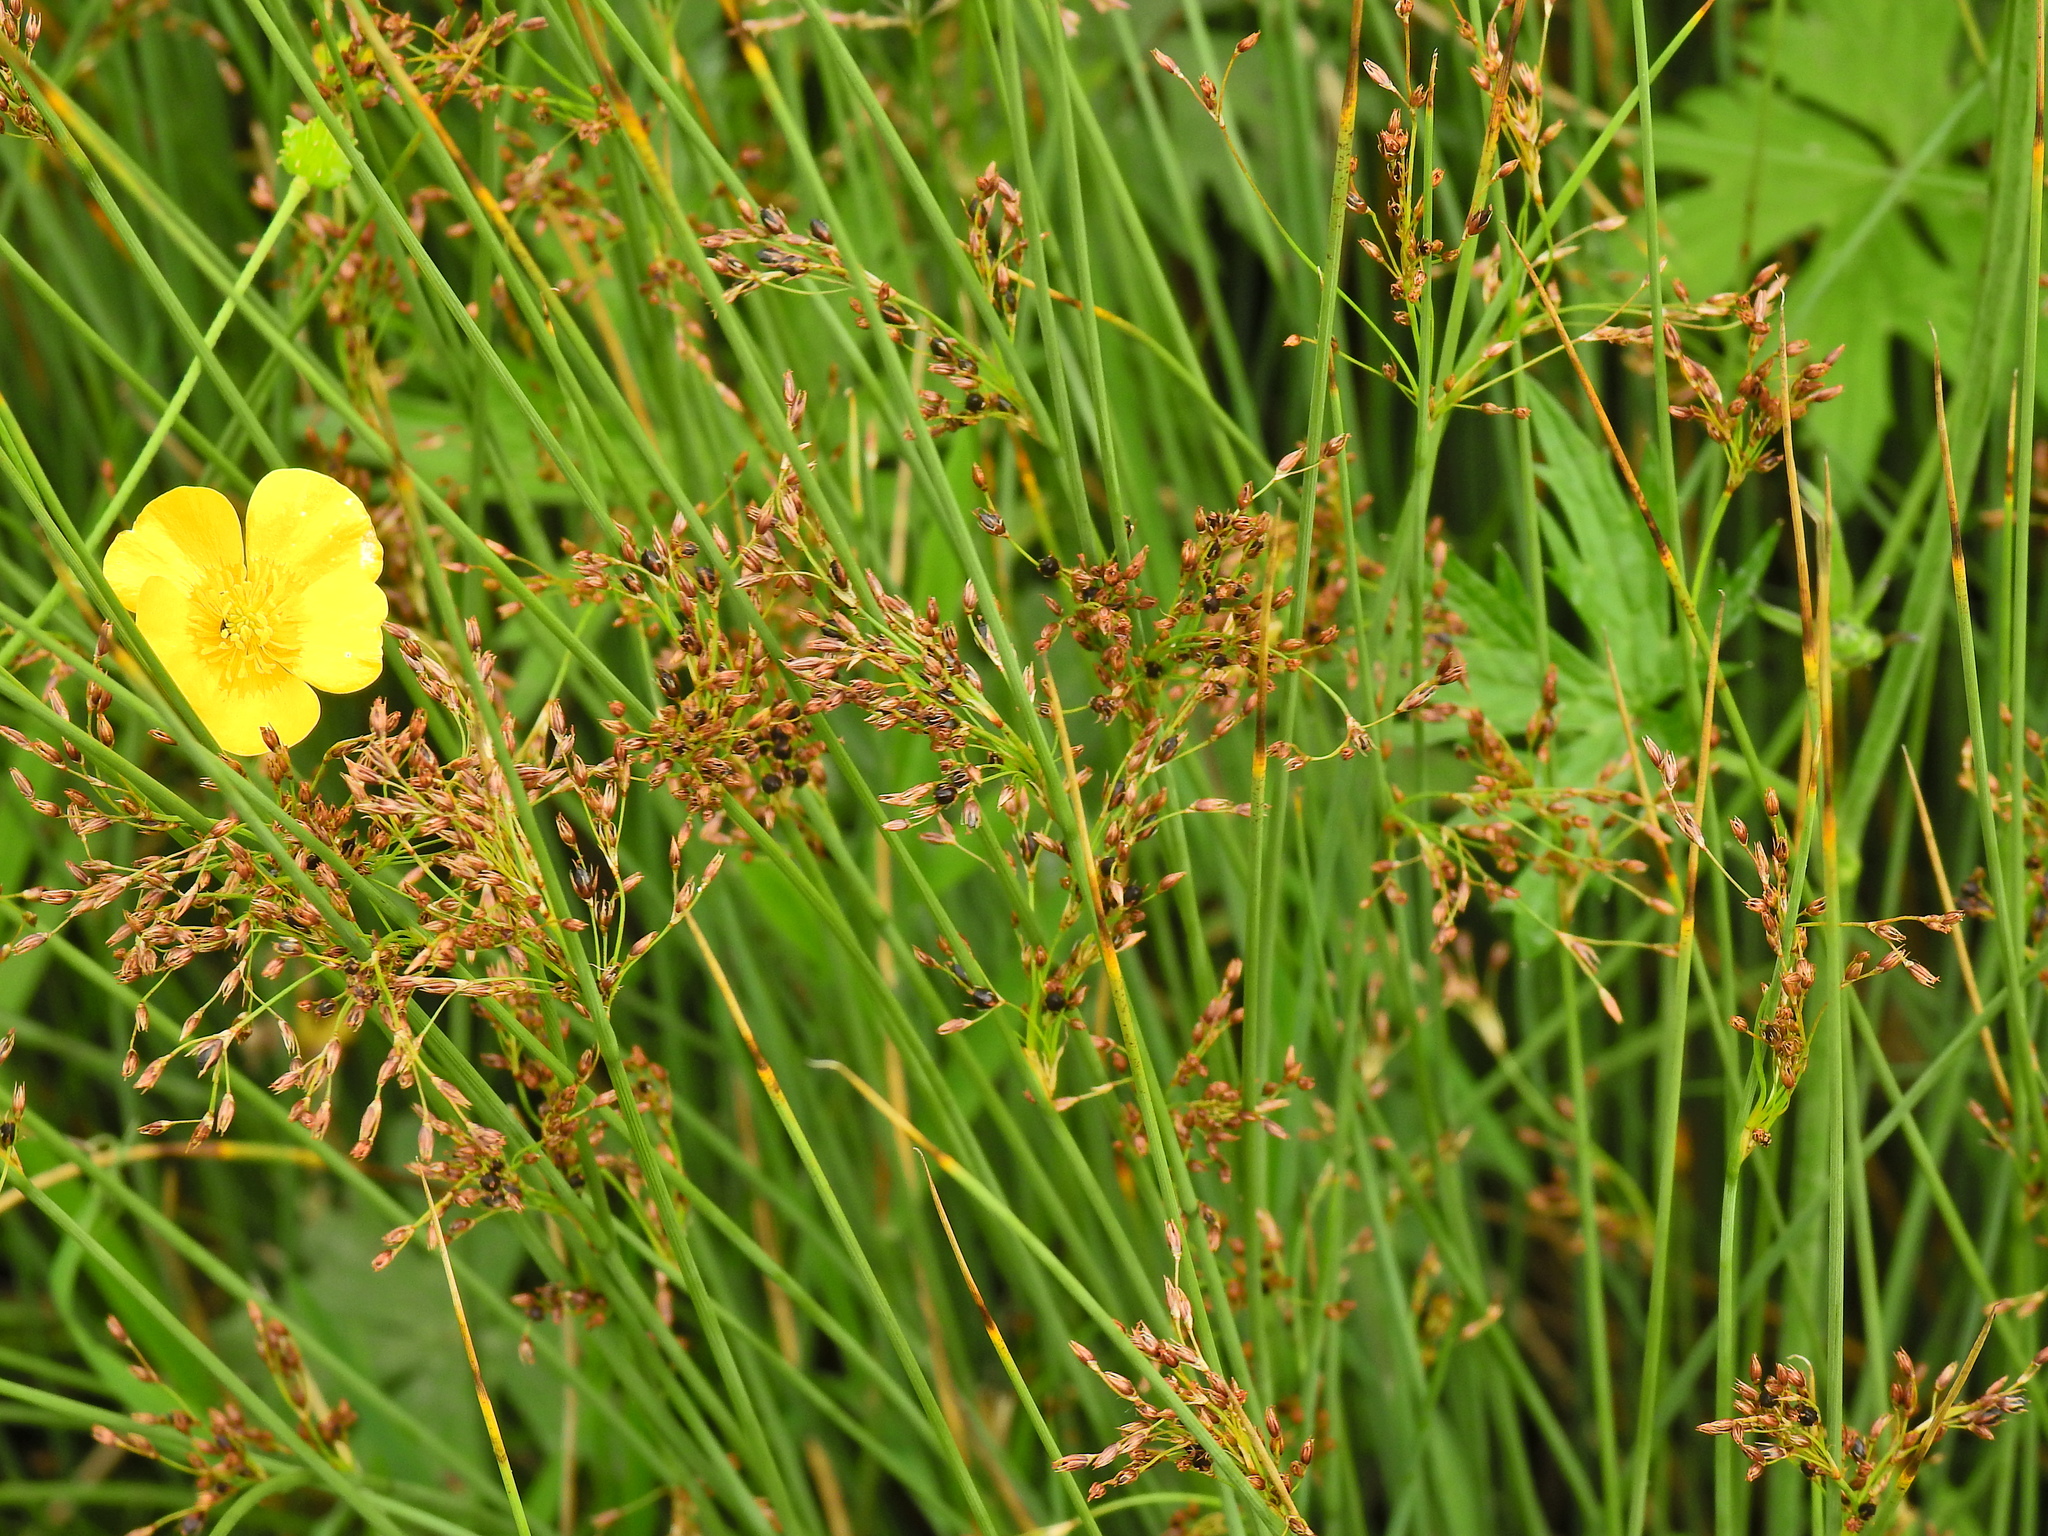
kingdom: Plantae
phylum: Tracheophyta
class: Liliopsida
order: Poales
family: Juncaceae
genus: Juncus
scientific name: Juncus inflexus
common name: Hard rush
